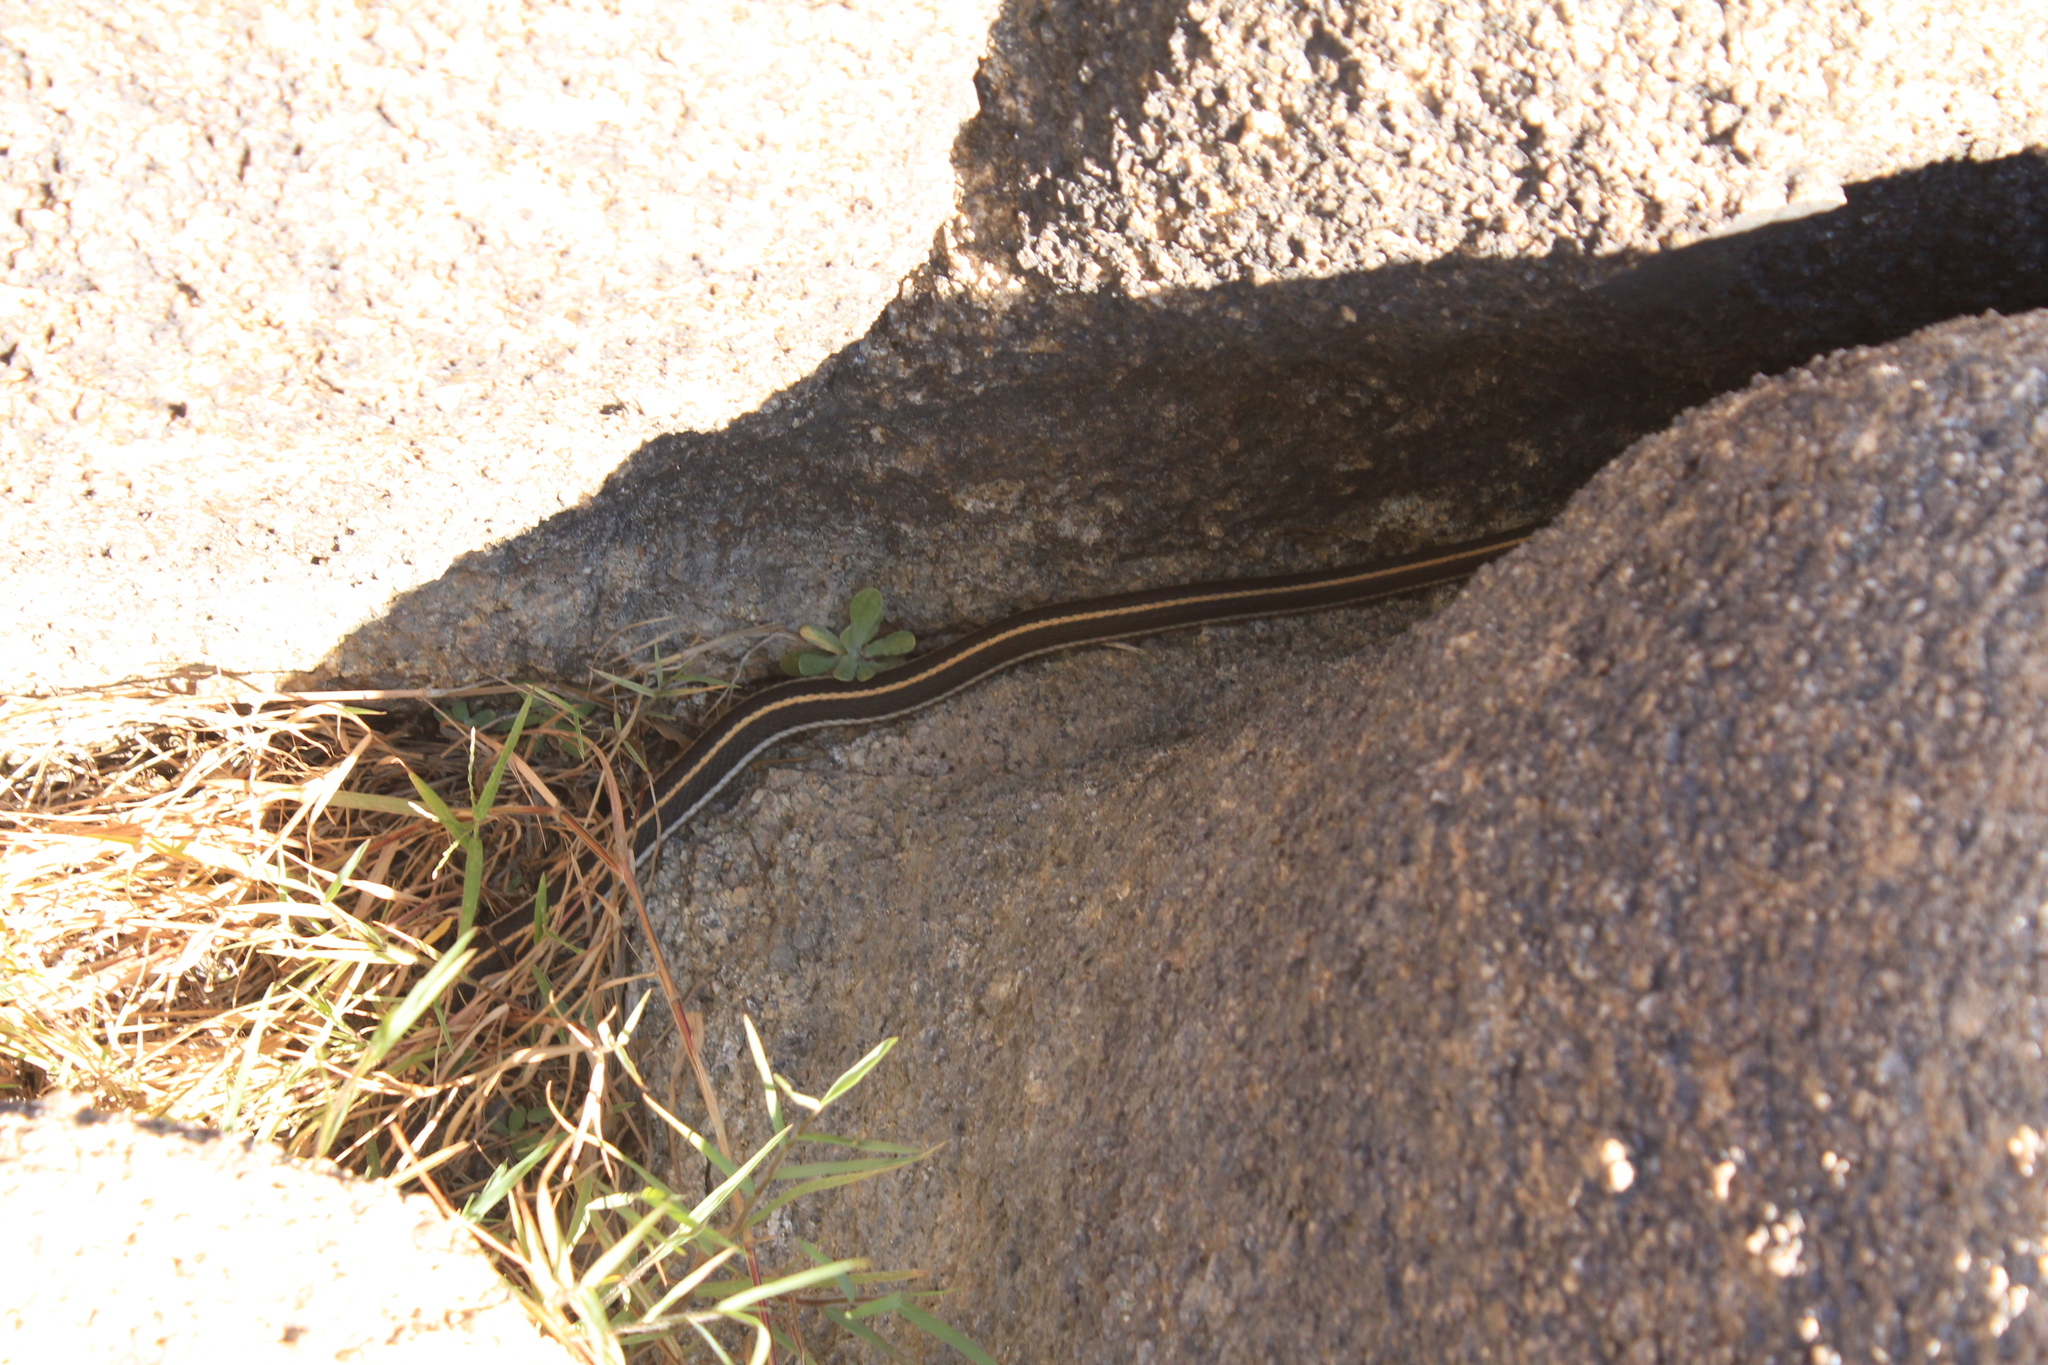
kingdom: Animalia
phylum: Chordata
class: Squamata
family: Colubridae
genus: Thamnophis
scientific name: Thamnophis cyrtopsis
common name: Black-necked gartersnake
